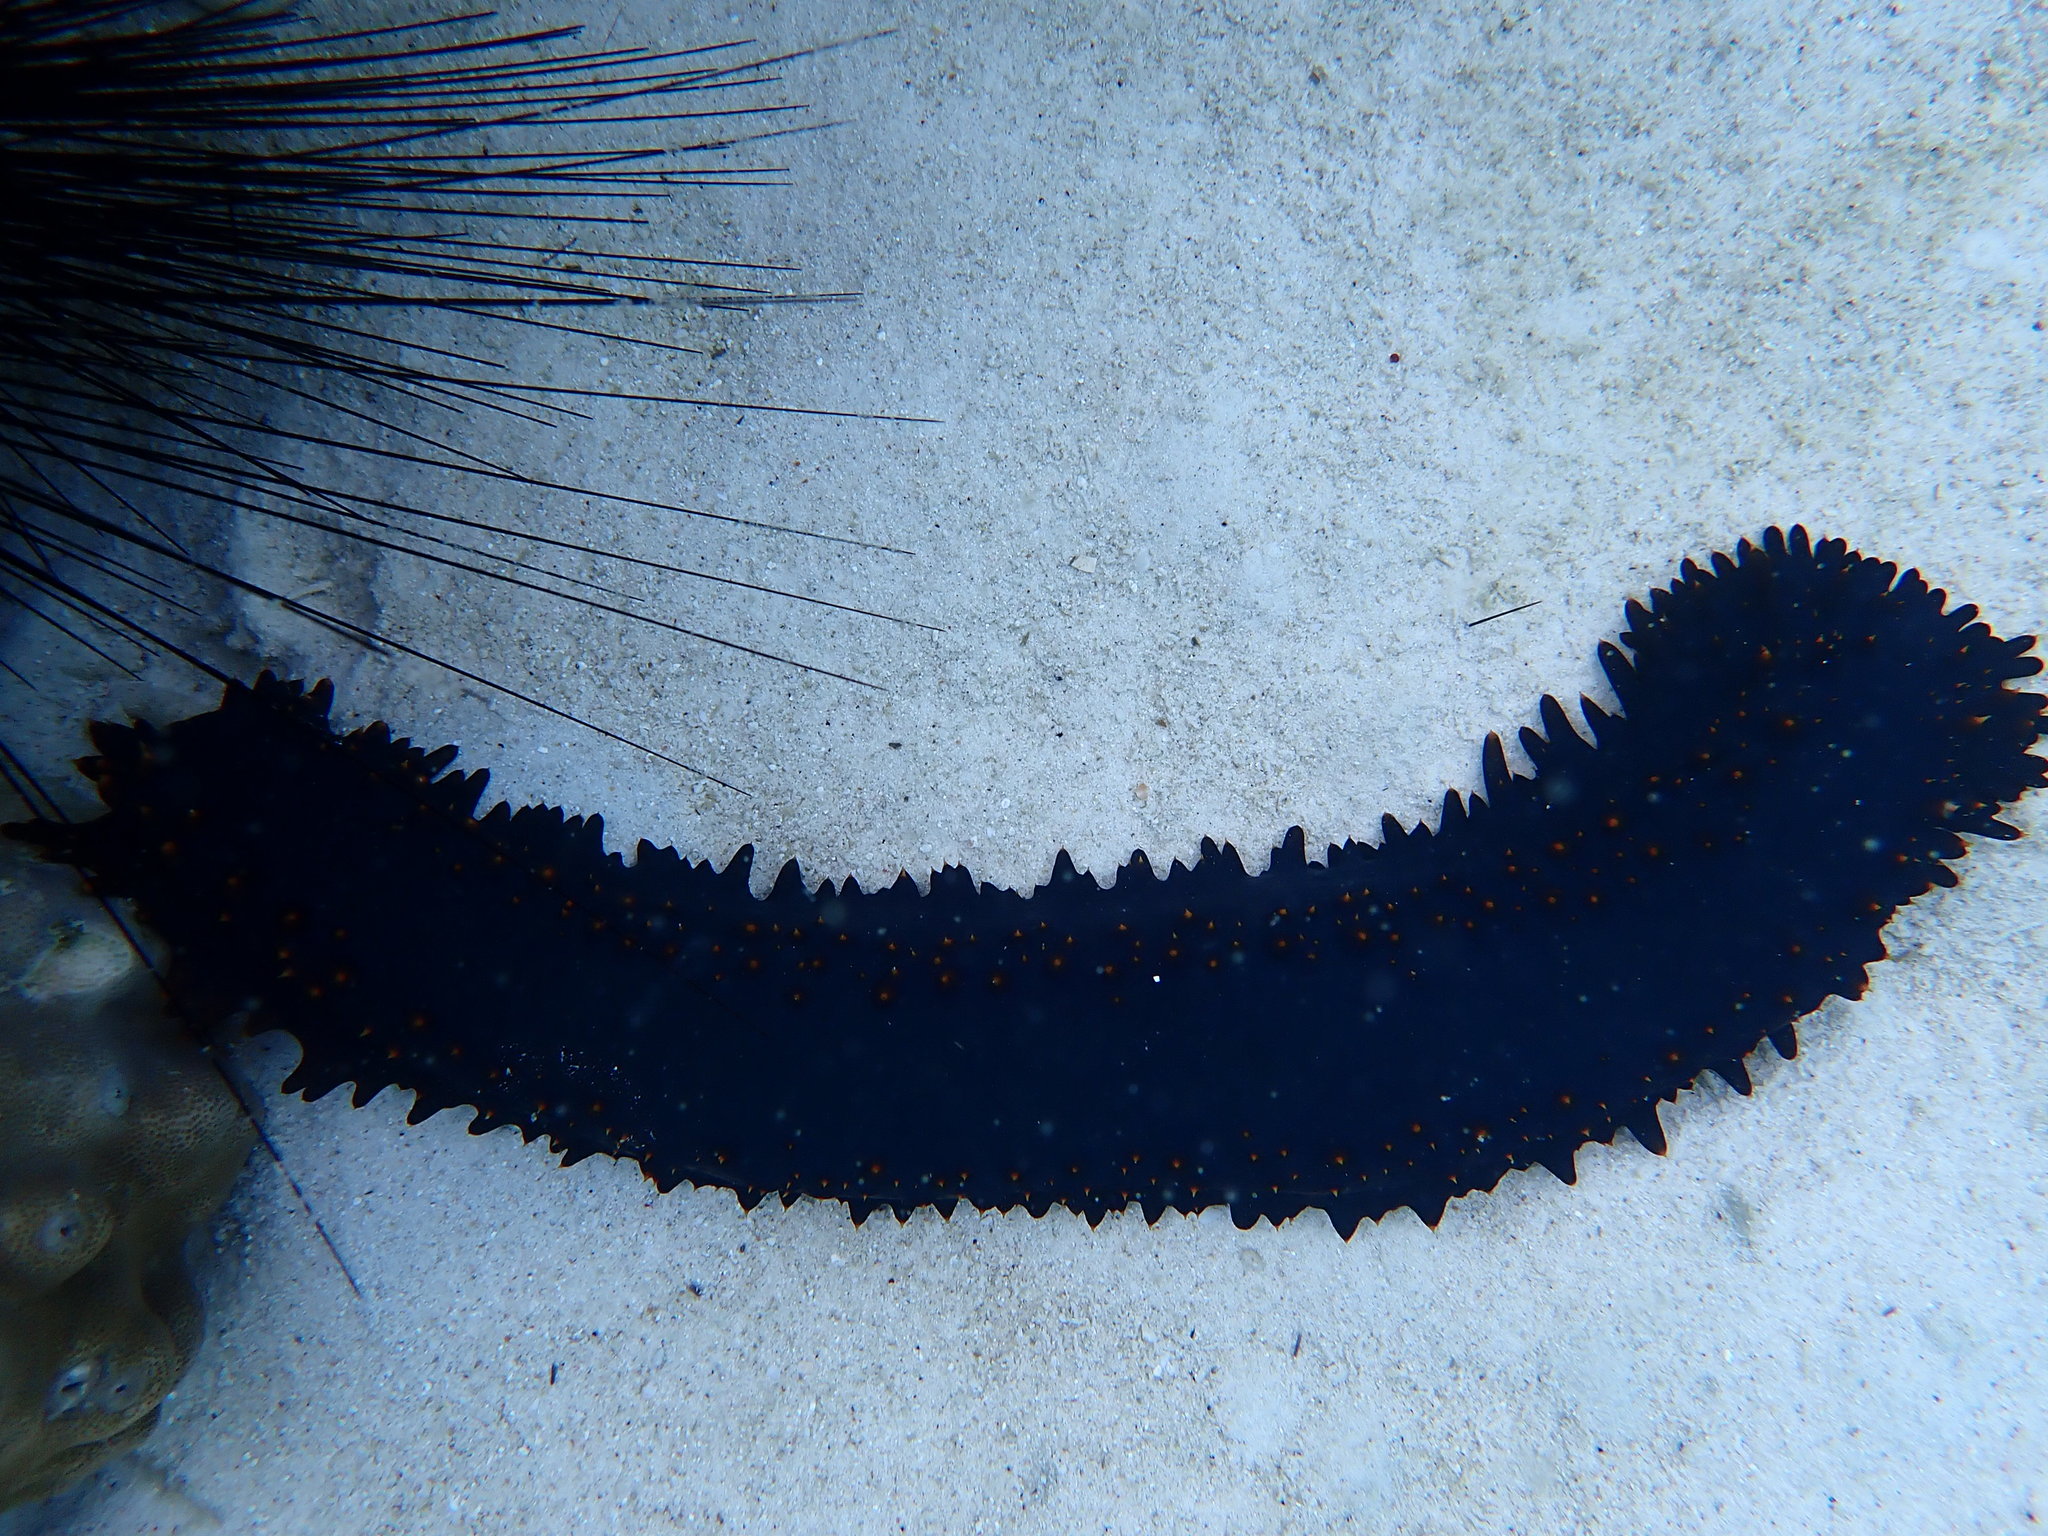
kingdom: Animalia
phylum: Echinodermata
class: Holothuroidea
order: Synallactida
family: Stichopodidae
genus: Stichopus
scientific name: Stichopus chloronotus
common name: Greenfish
